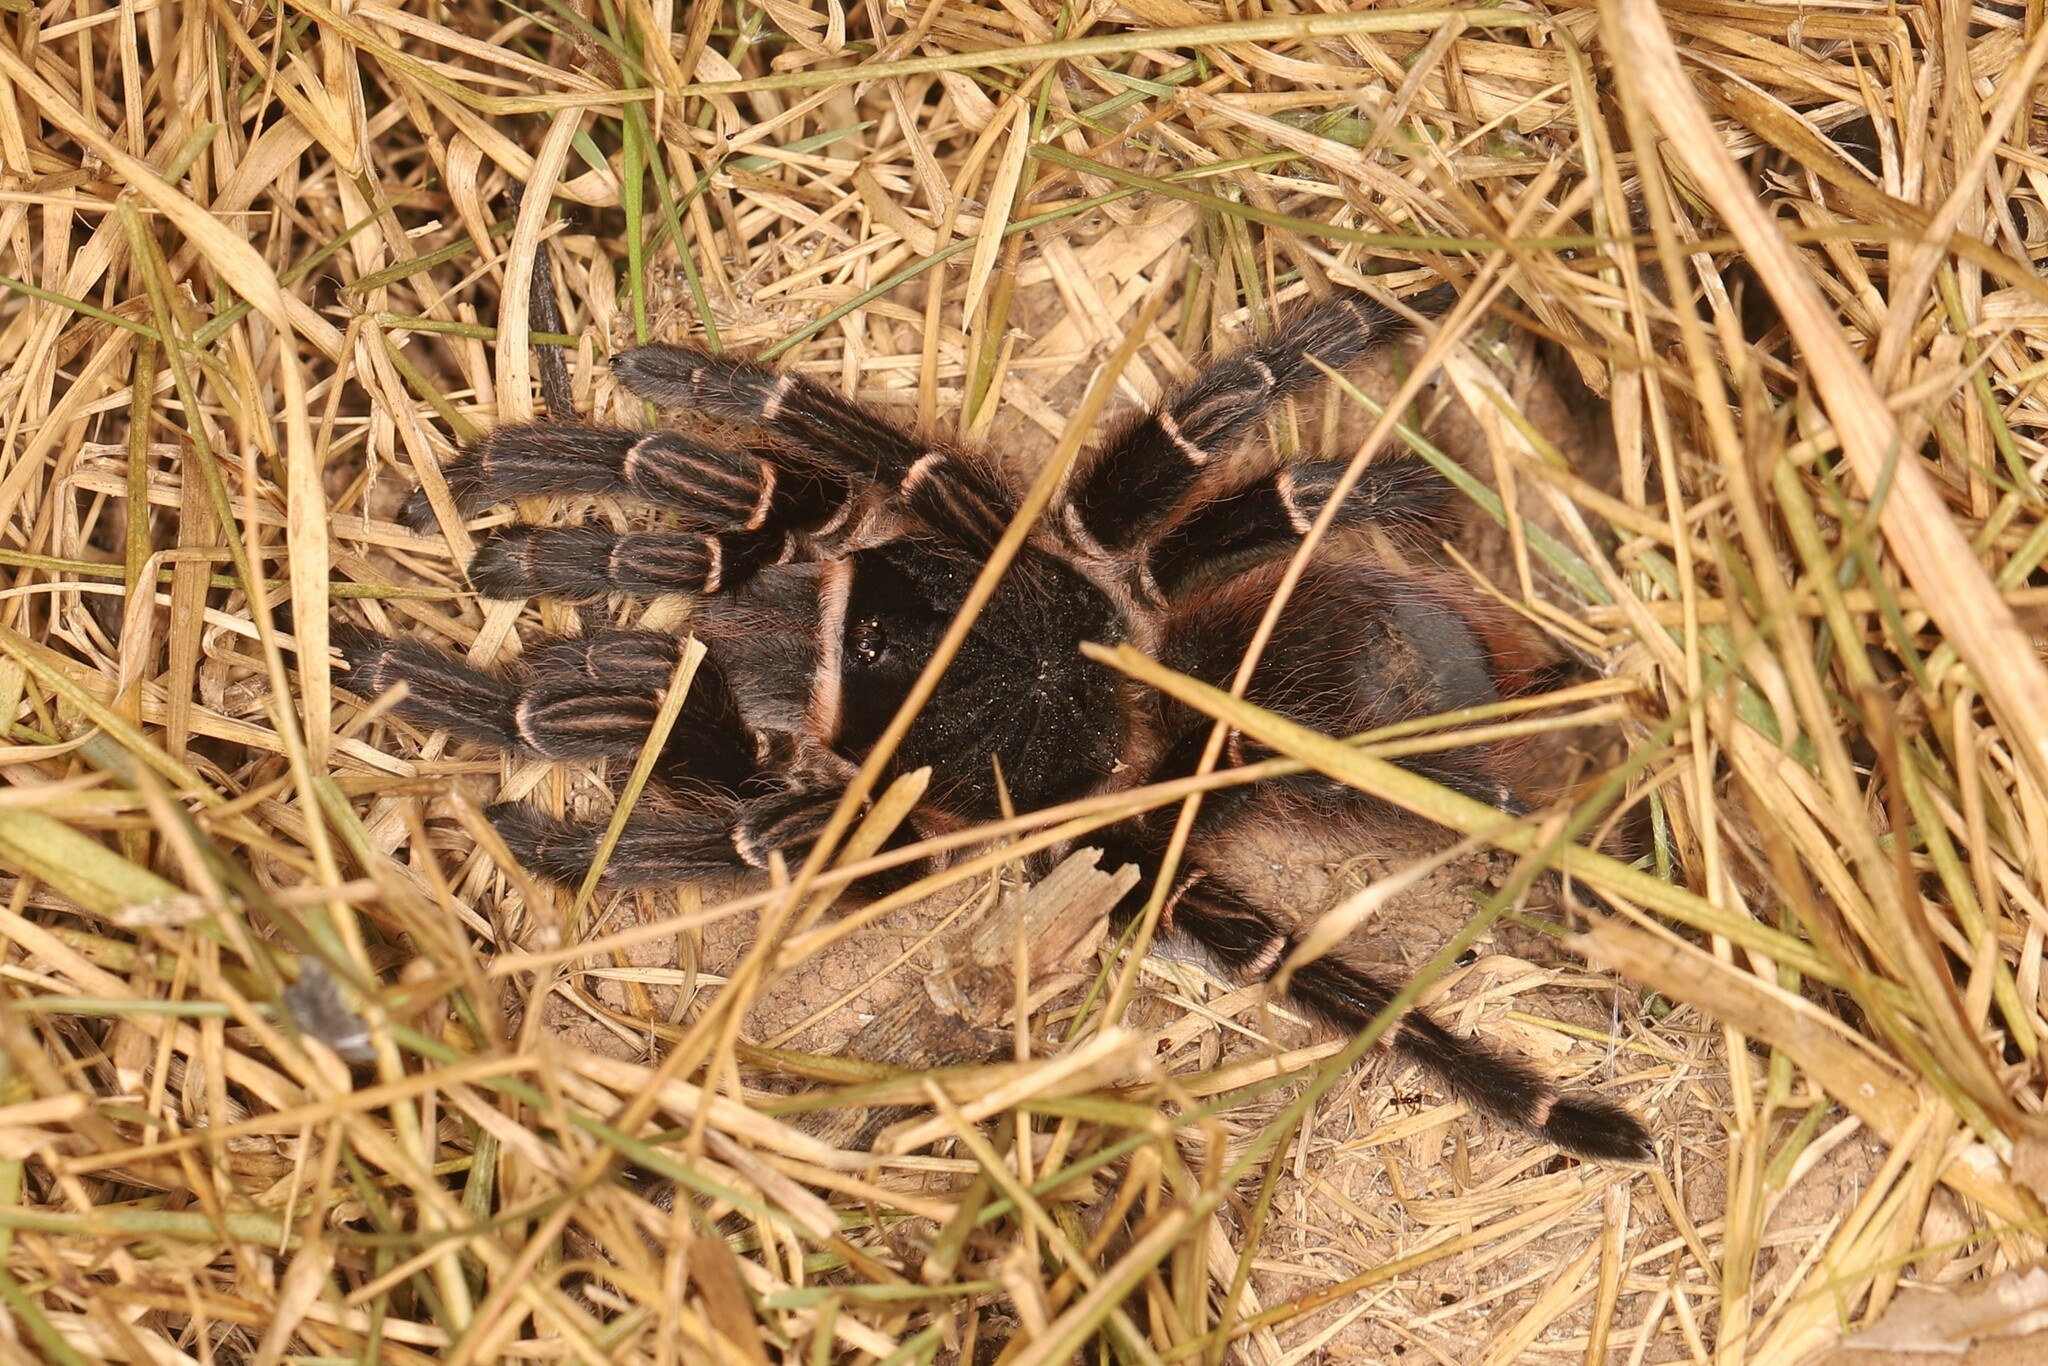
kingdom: Animalia
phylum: Arthropoda
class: Arachnida
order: Araneae
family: Theraphosidae
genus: Acanthoscurria
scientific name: Acanthoscurria juruenicola
